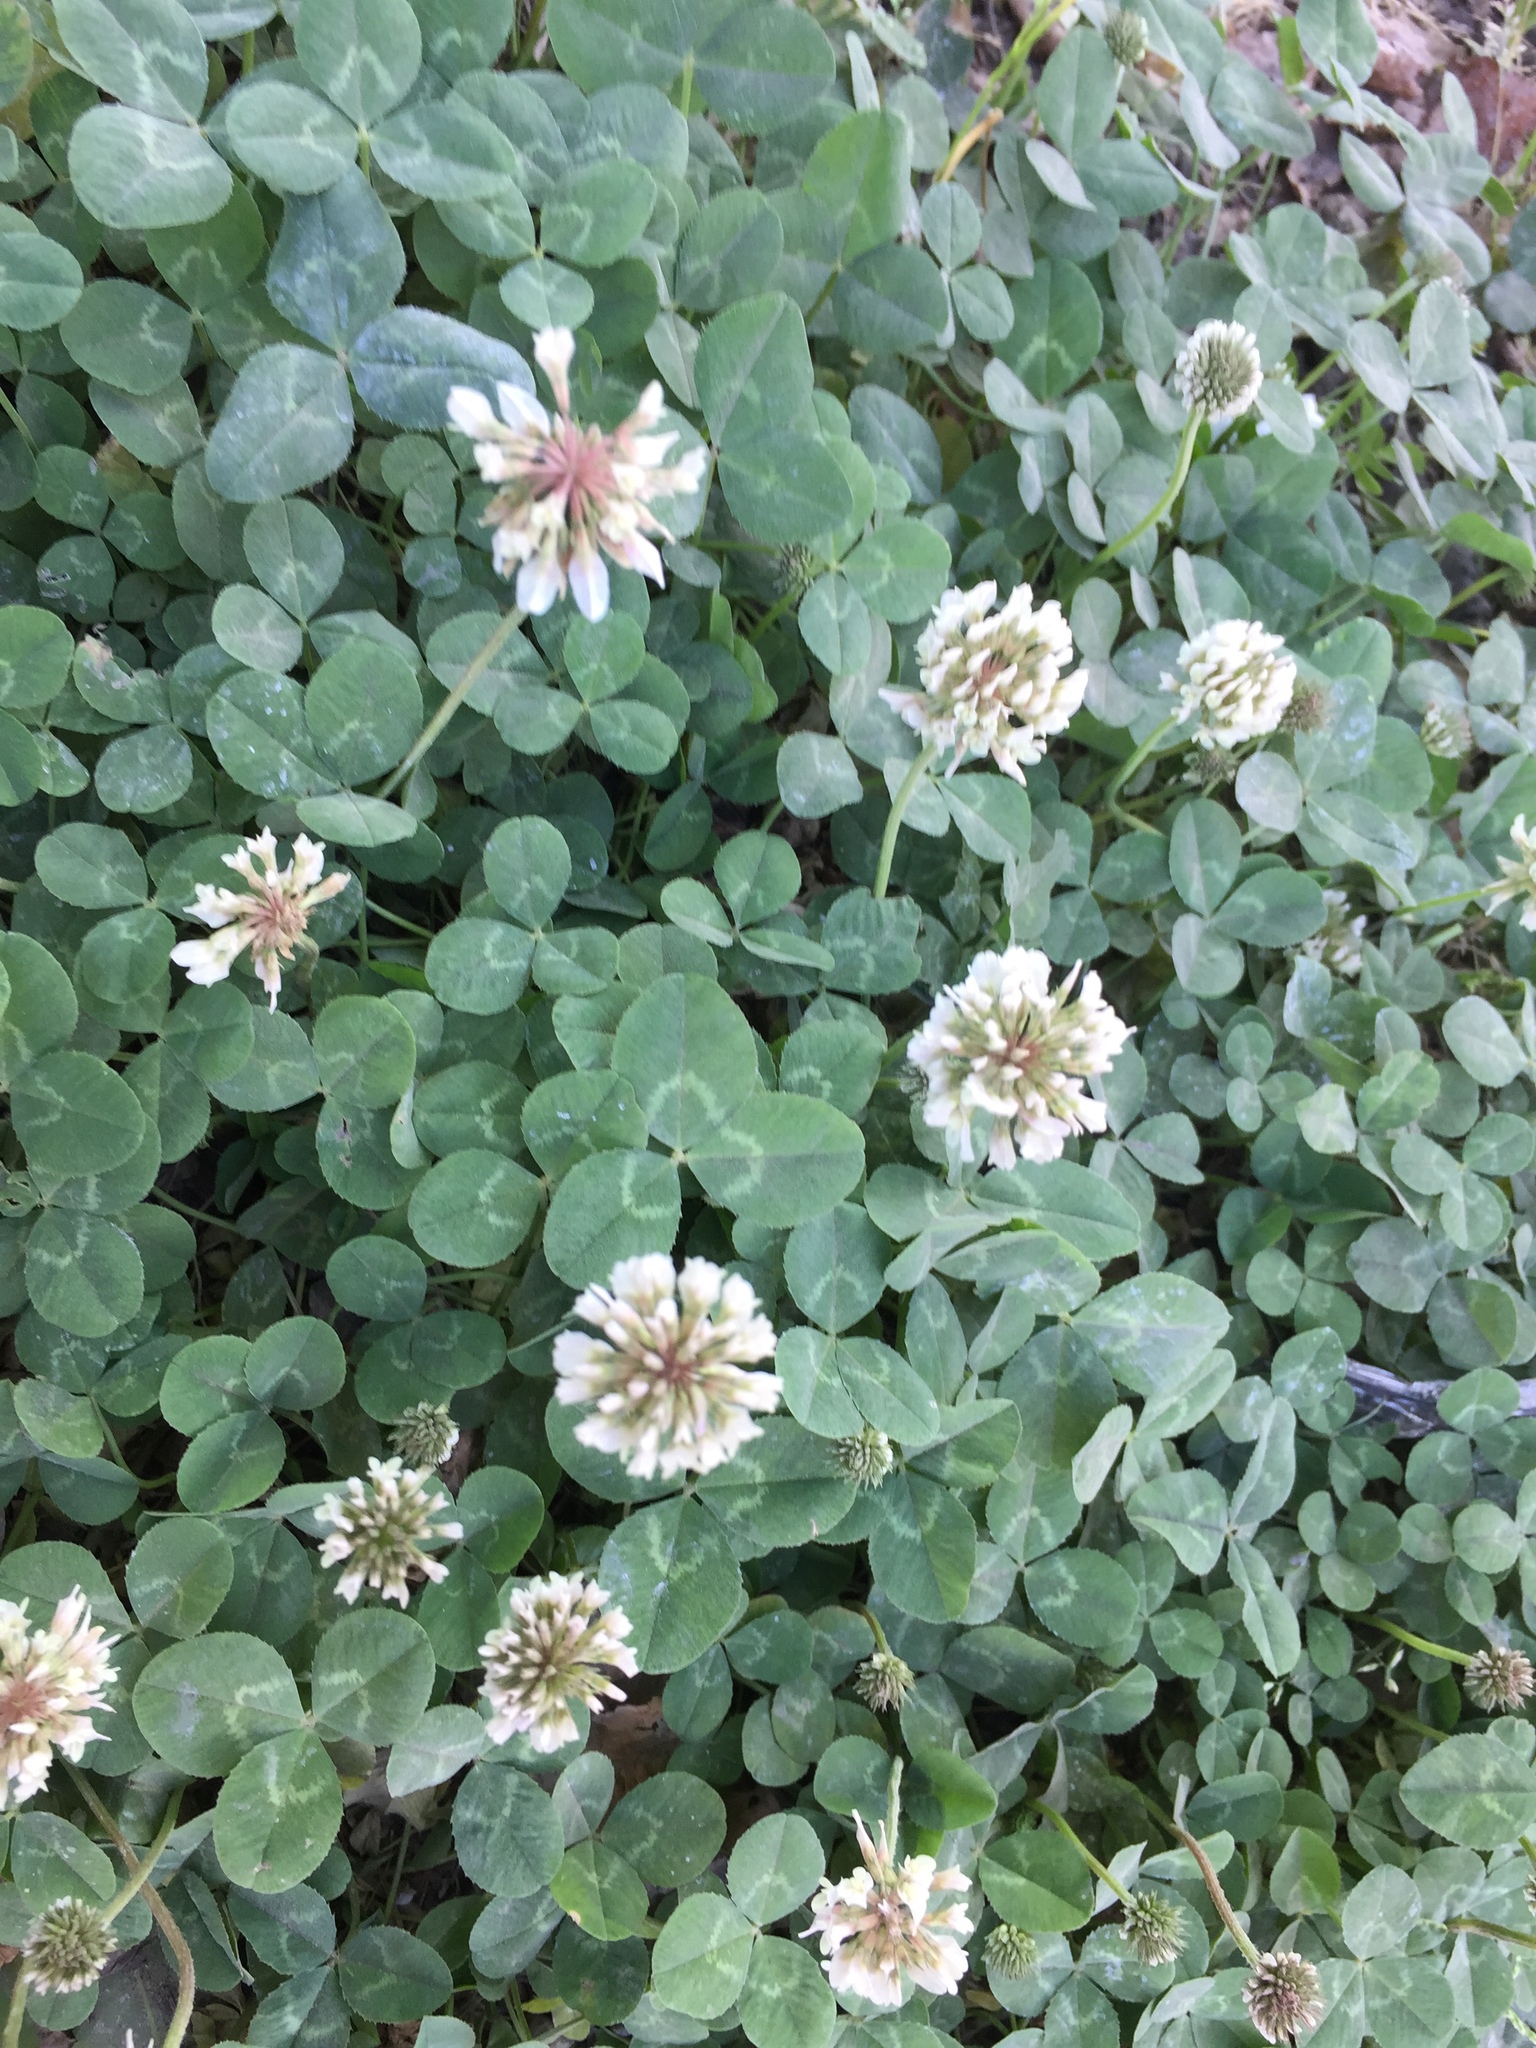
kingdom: Plantae
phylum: Tracheophyta
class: Magnoliopsida
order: Fabales
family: Fabaceae
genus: Trifolium
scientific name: Trifolium repens
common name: White clover
